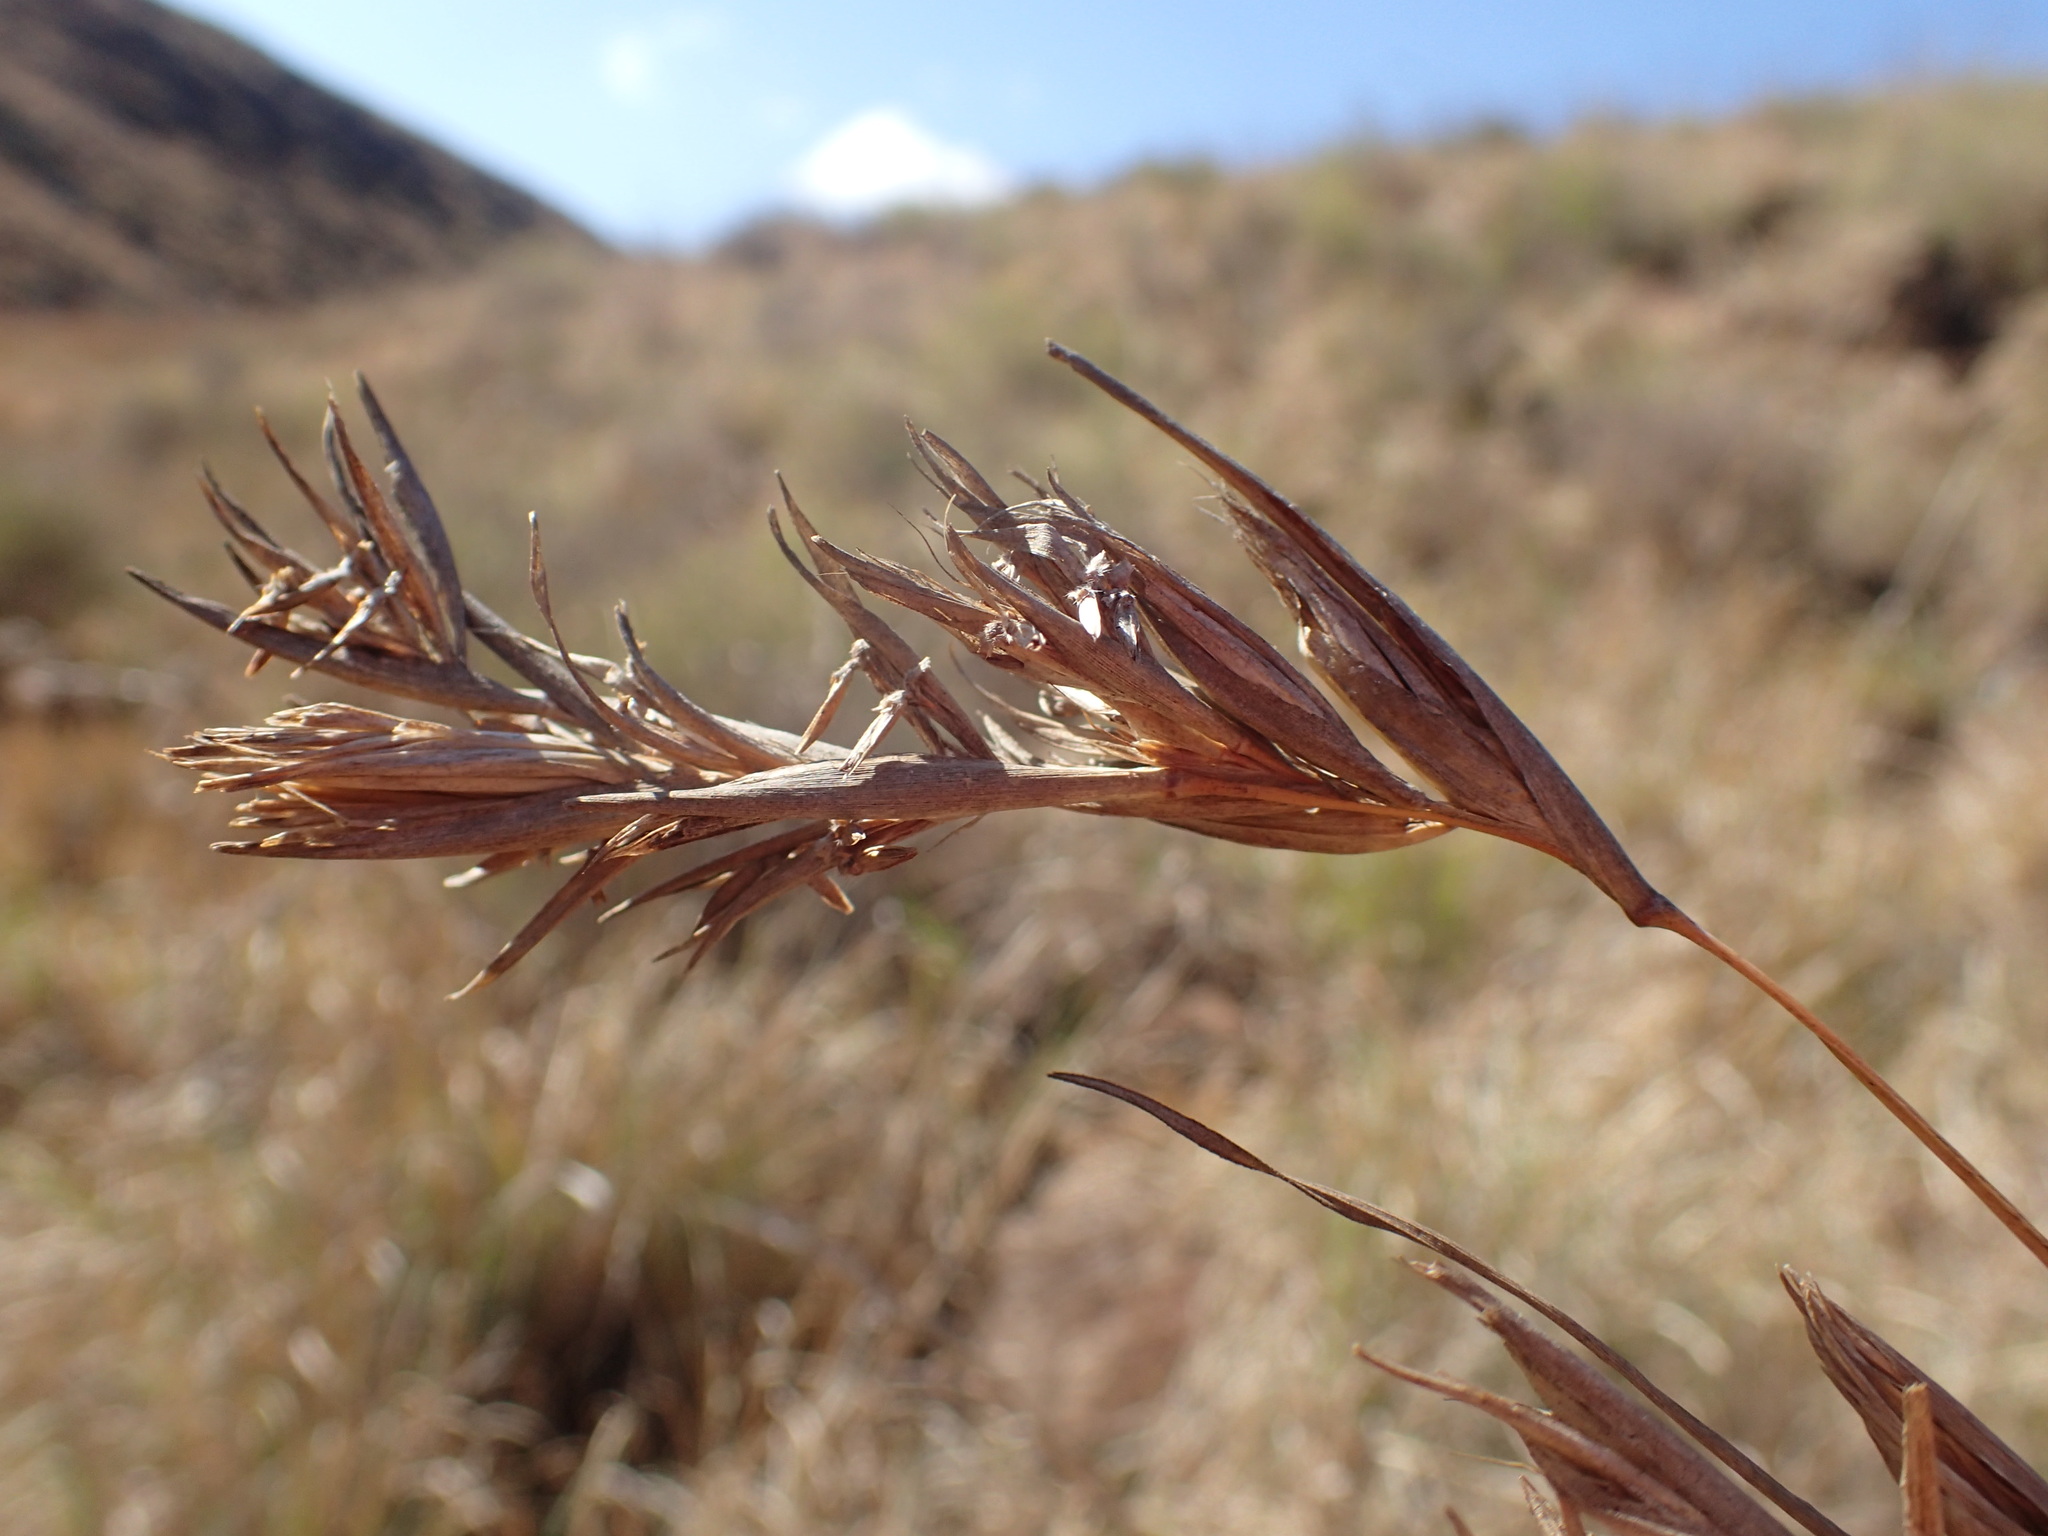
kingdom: Plantae
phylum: Tracheophyta
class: Liliopsida
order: Poales
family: Poaceae
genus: Themeda
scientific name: Themeda triandra
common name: Kangaroo grass
